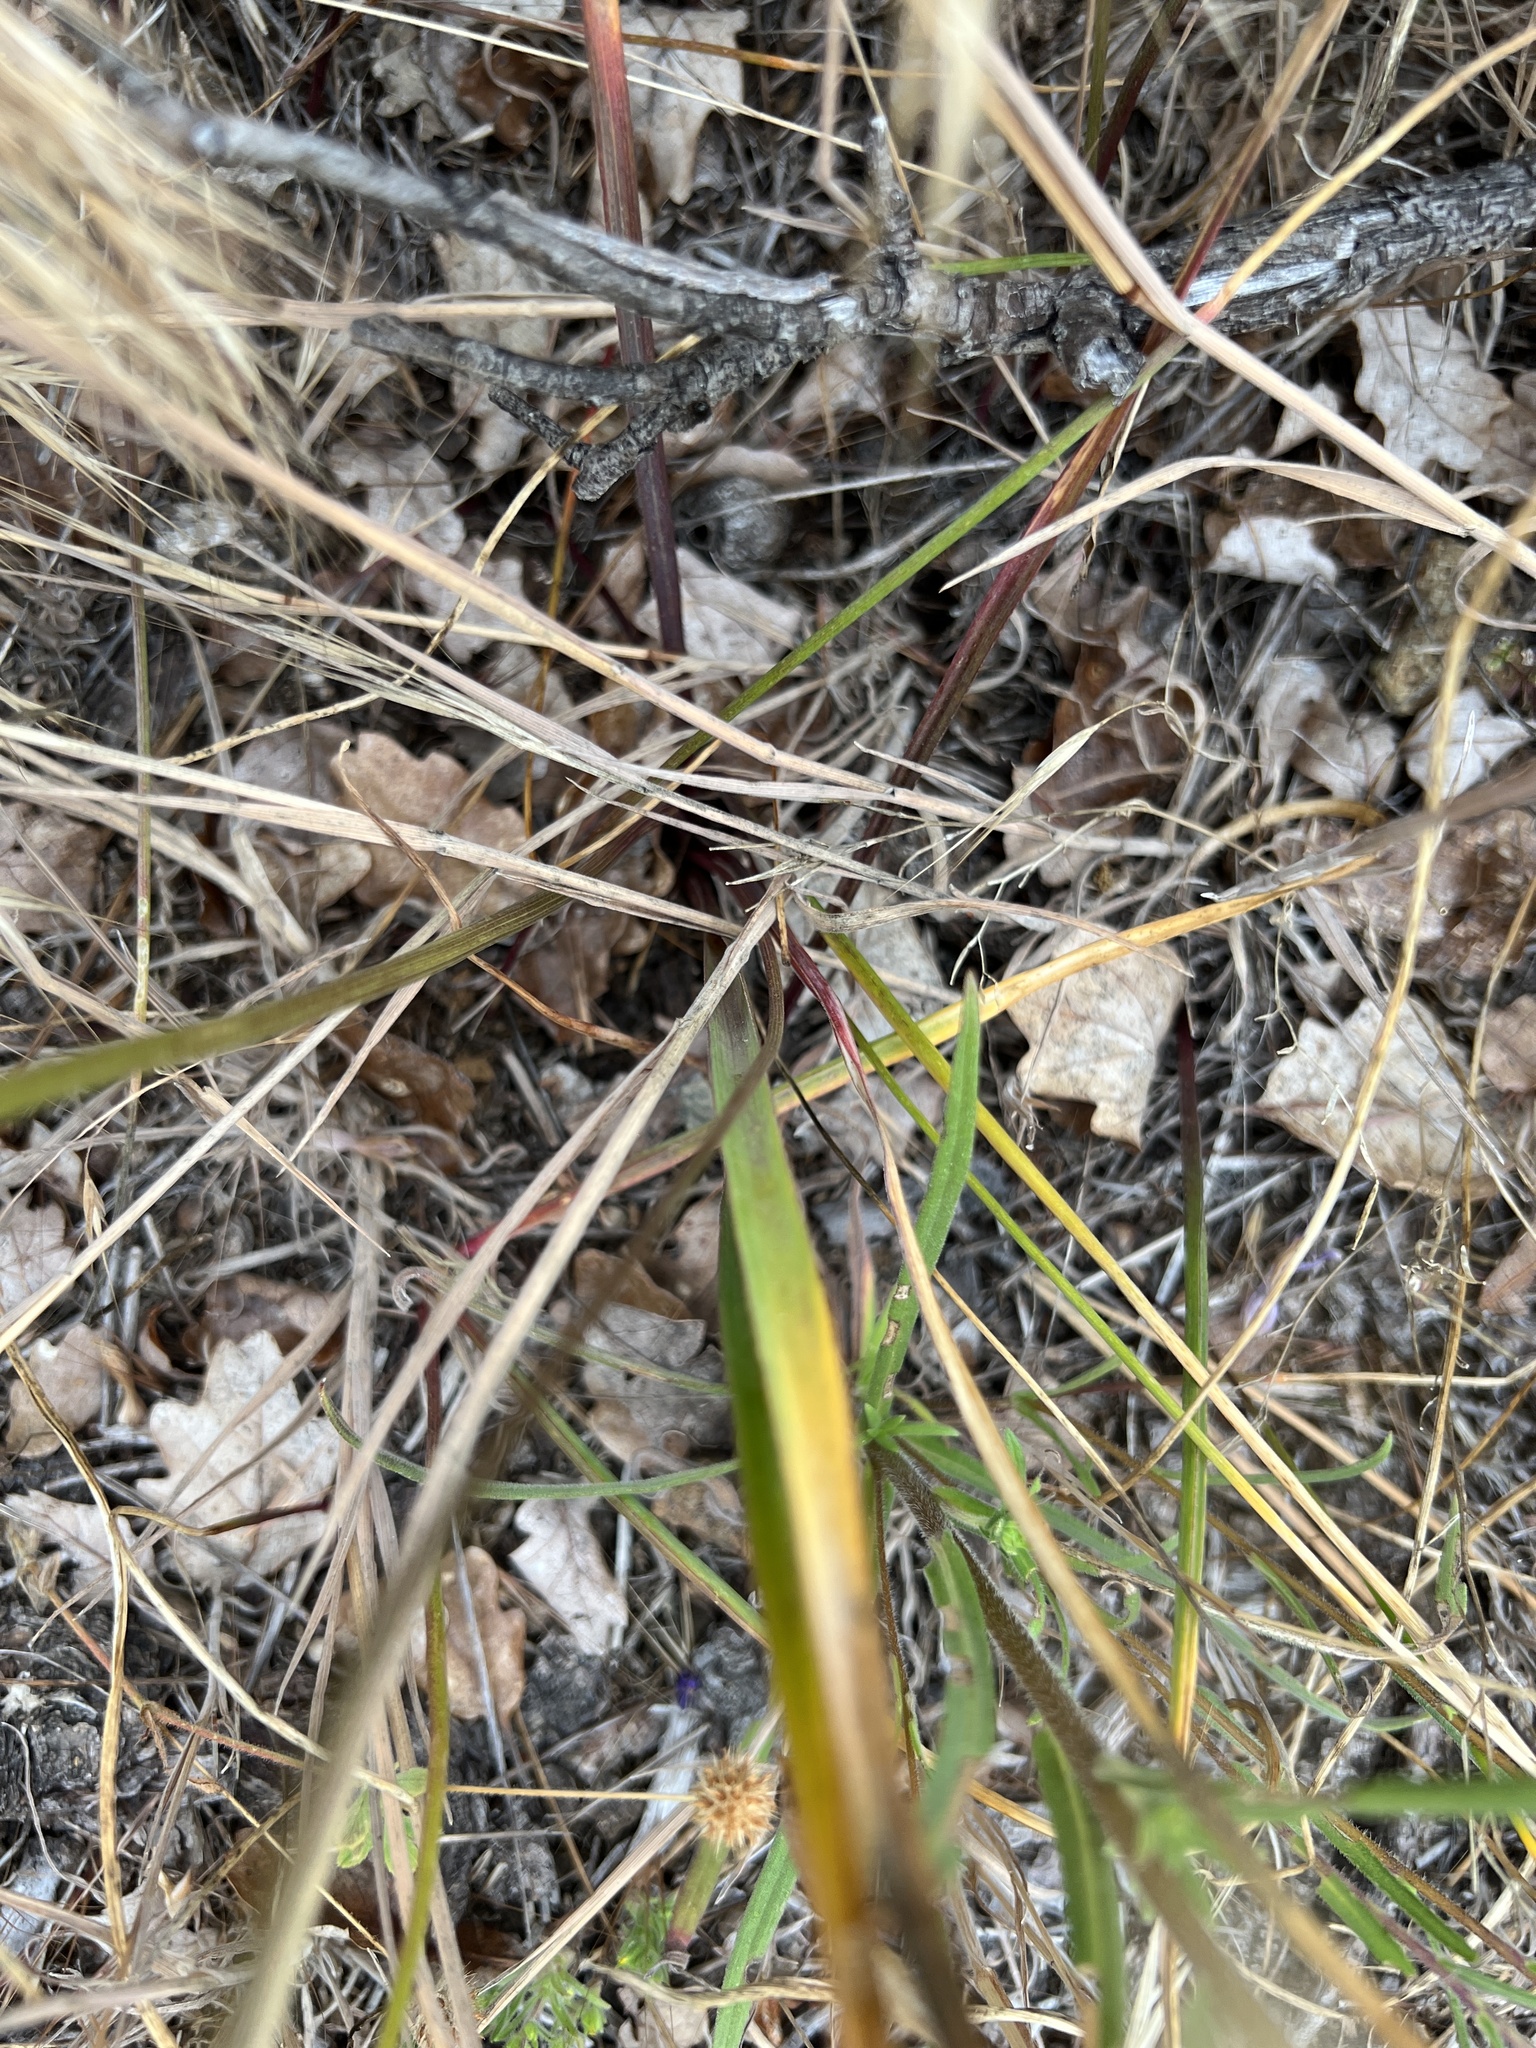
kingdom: Plantae
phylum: Tracheophyta
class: Liliopsida
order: Asparagales
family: Asparagaceae
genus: Dichelostemma
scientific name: Dichelostemma congestum
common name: Fork-tooth ookow
